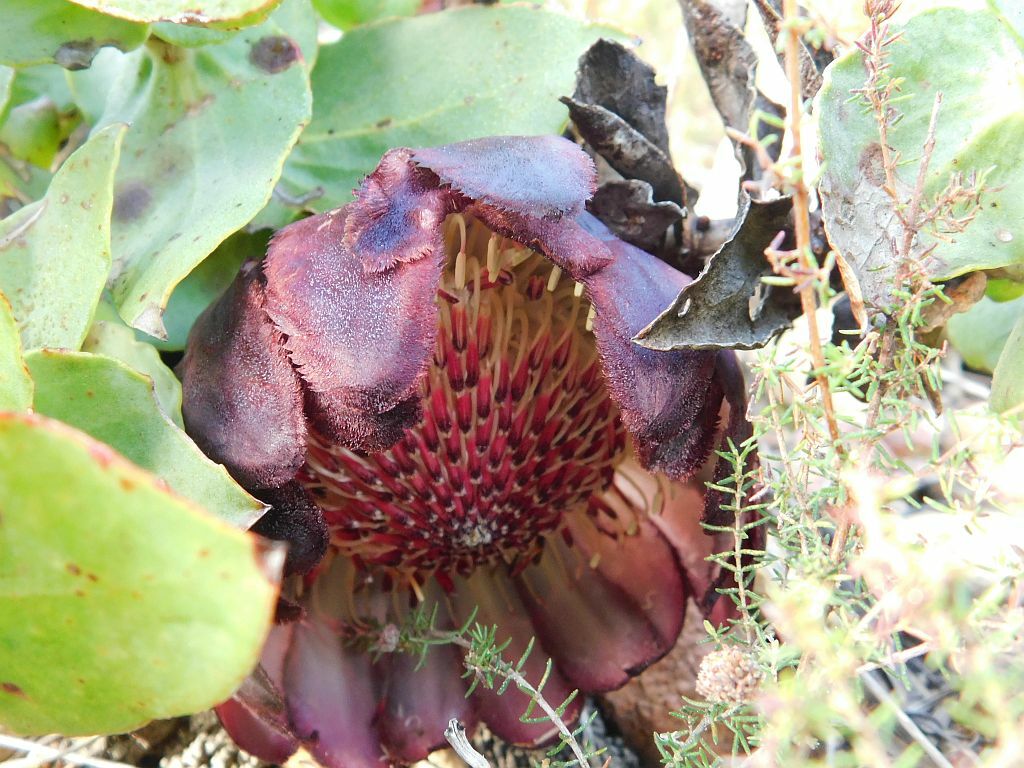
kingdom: Plantae
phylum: Tracheophyta
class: Magnoliopsida
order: Proteales
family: Proteaceae
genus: Protea
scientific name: Protea amplexicaulis
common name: Clasping-leaf sugarbush
